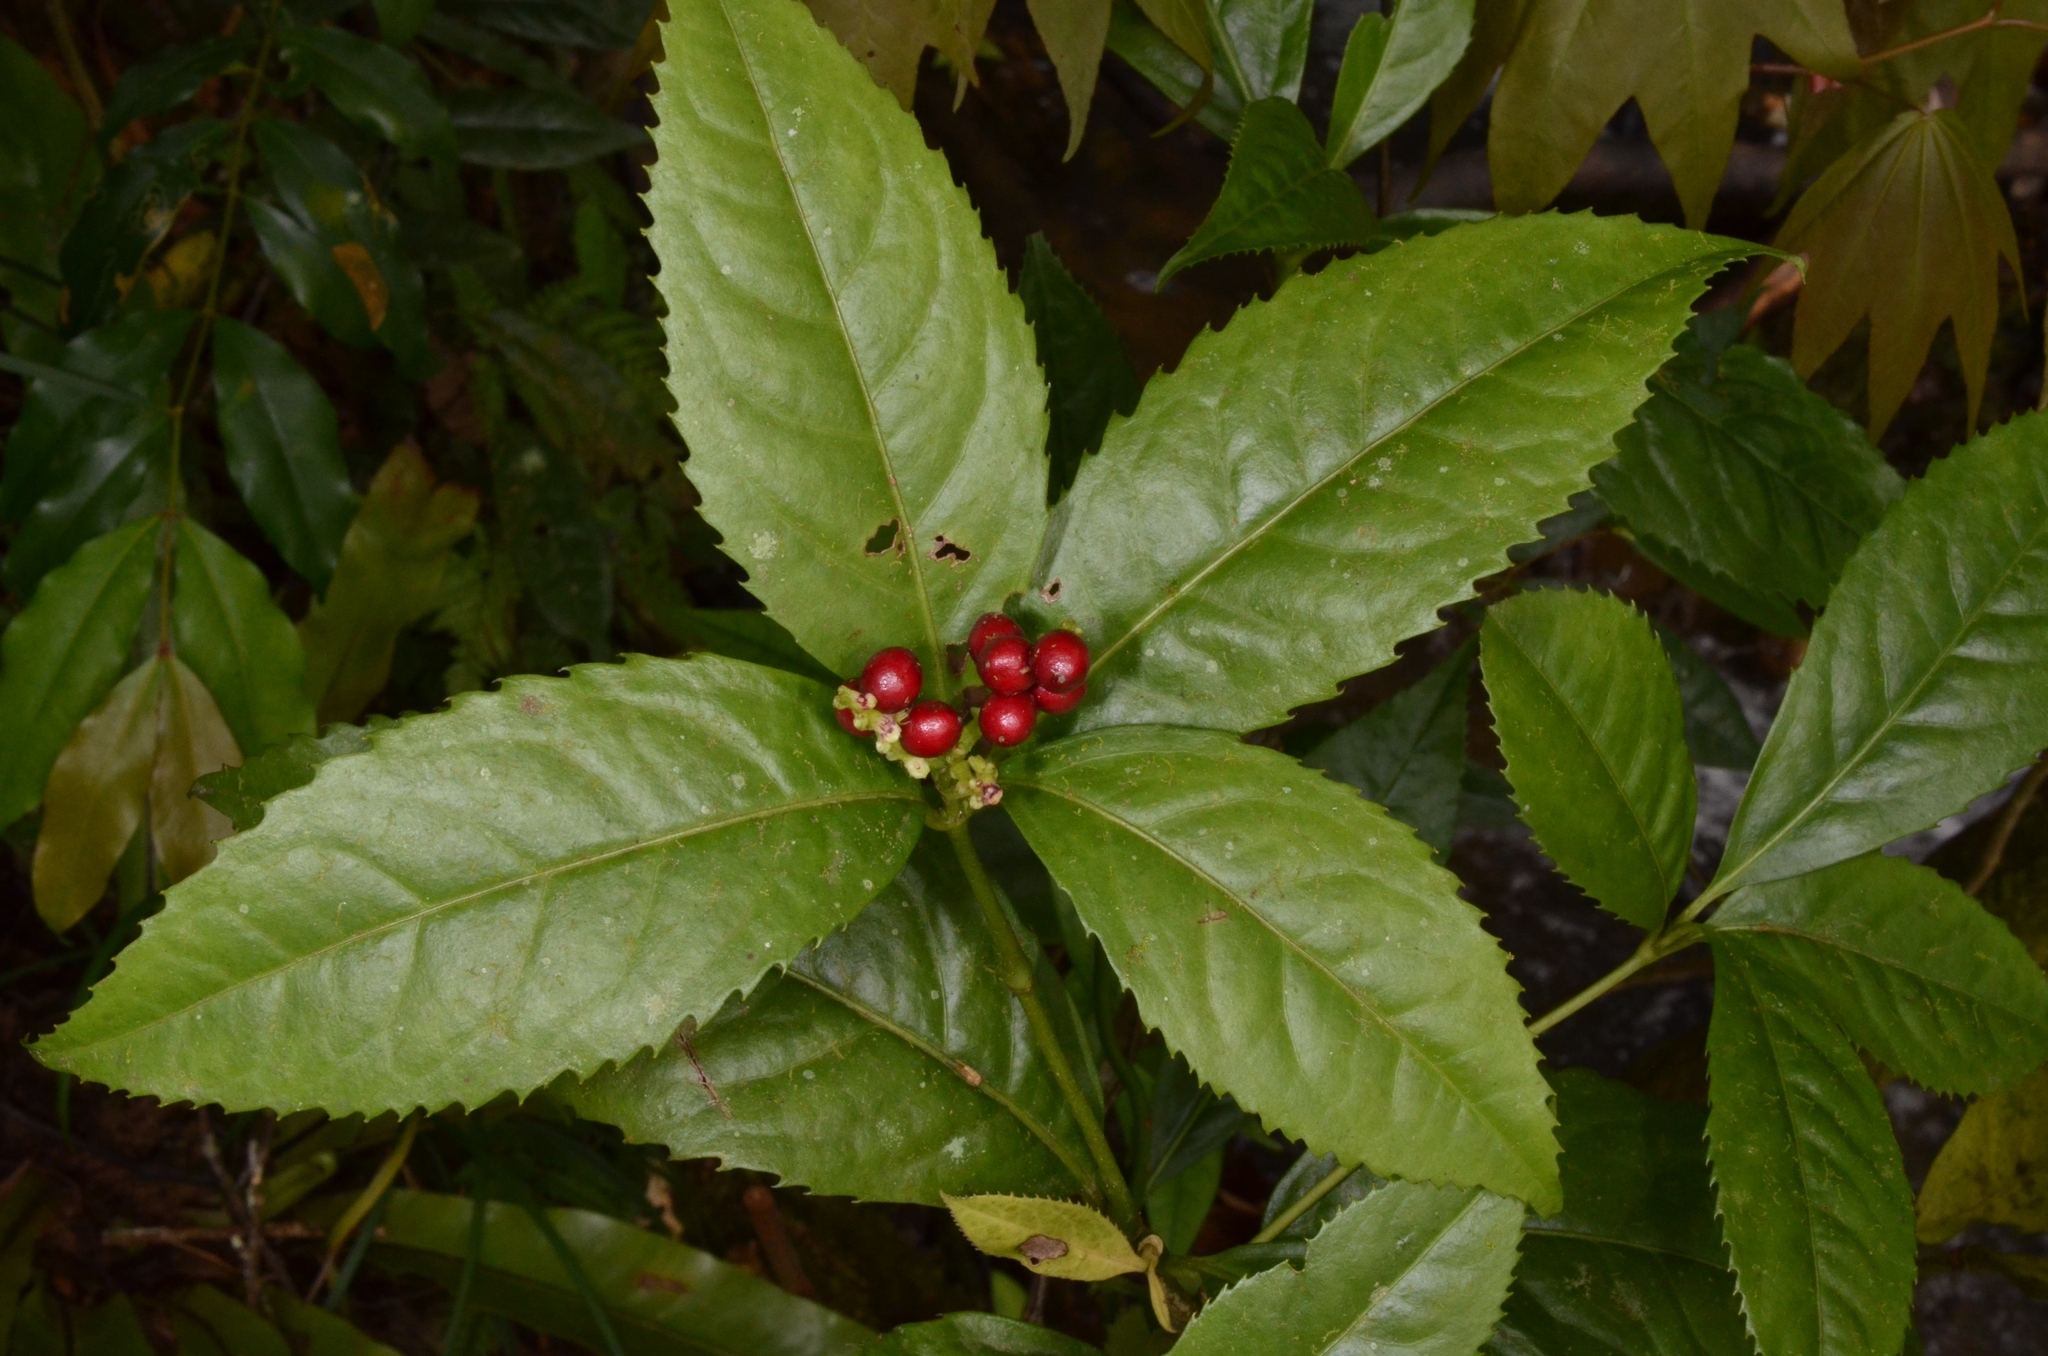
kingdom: Plantae
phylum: Tracheophyta
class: Magnoliopsida
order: Chloranthales
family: Chloranthaceae
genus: Sarcandra
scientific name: Sarcandra glabra
